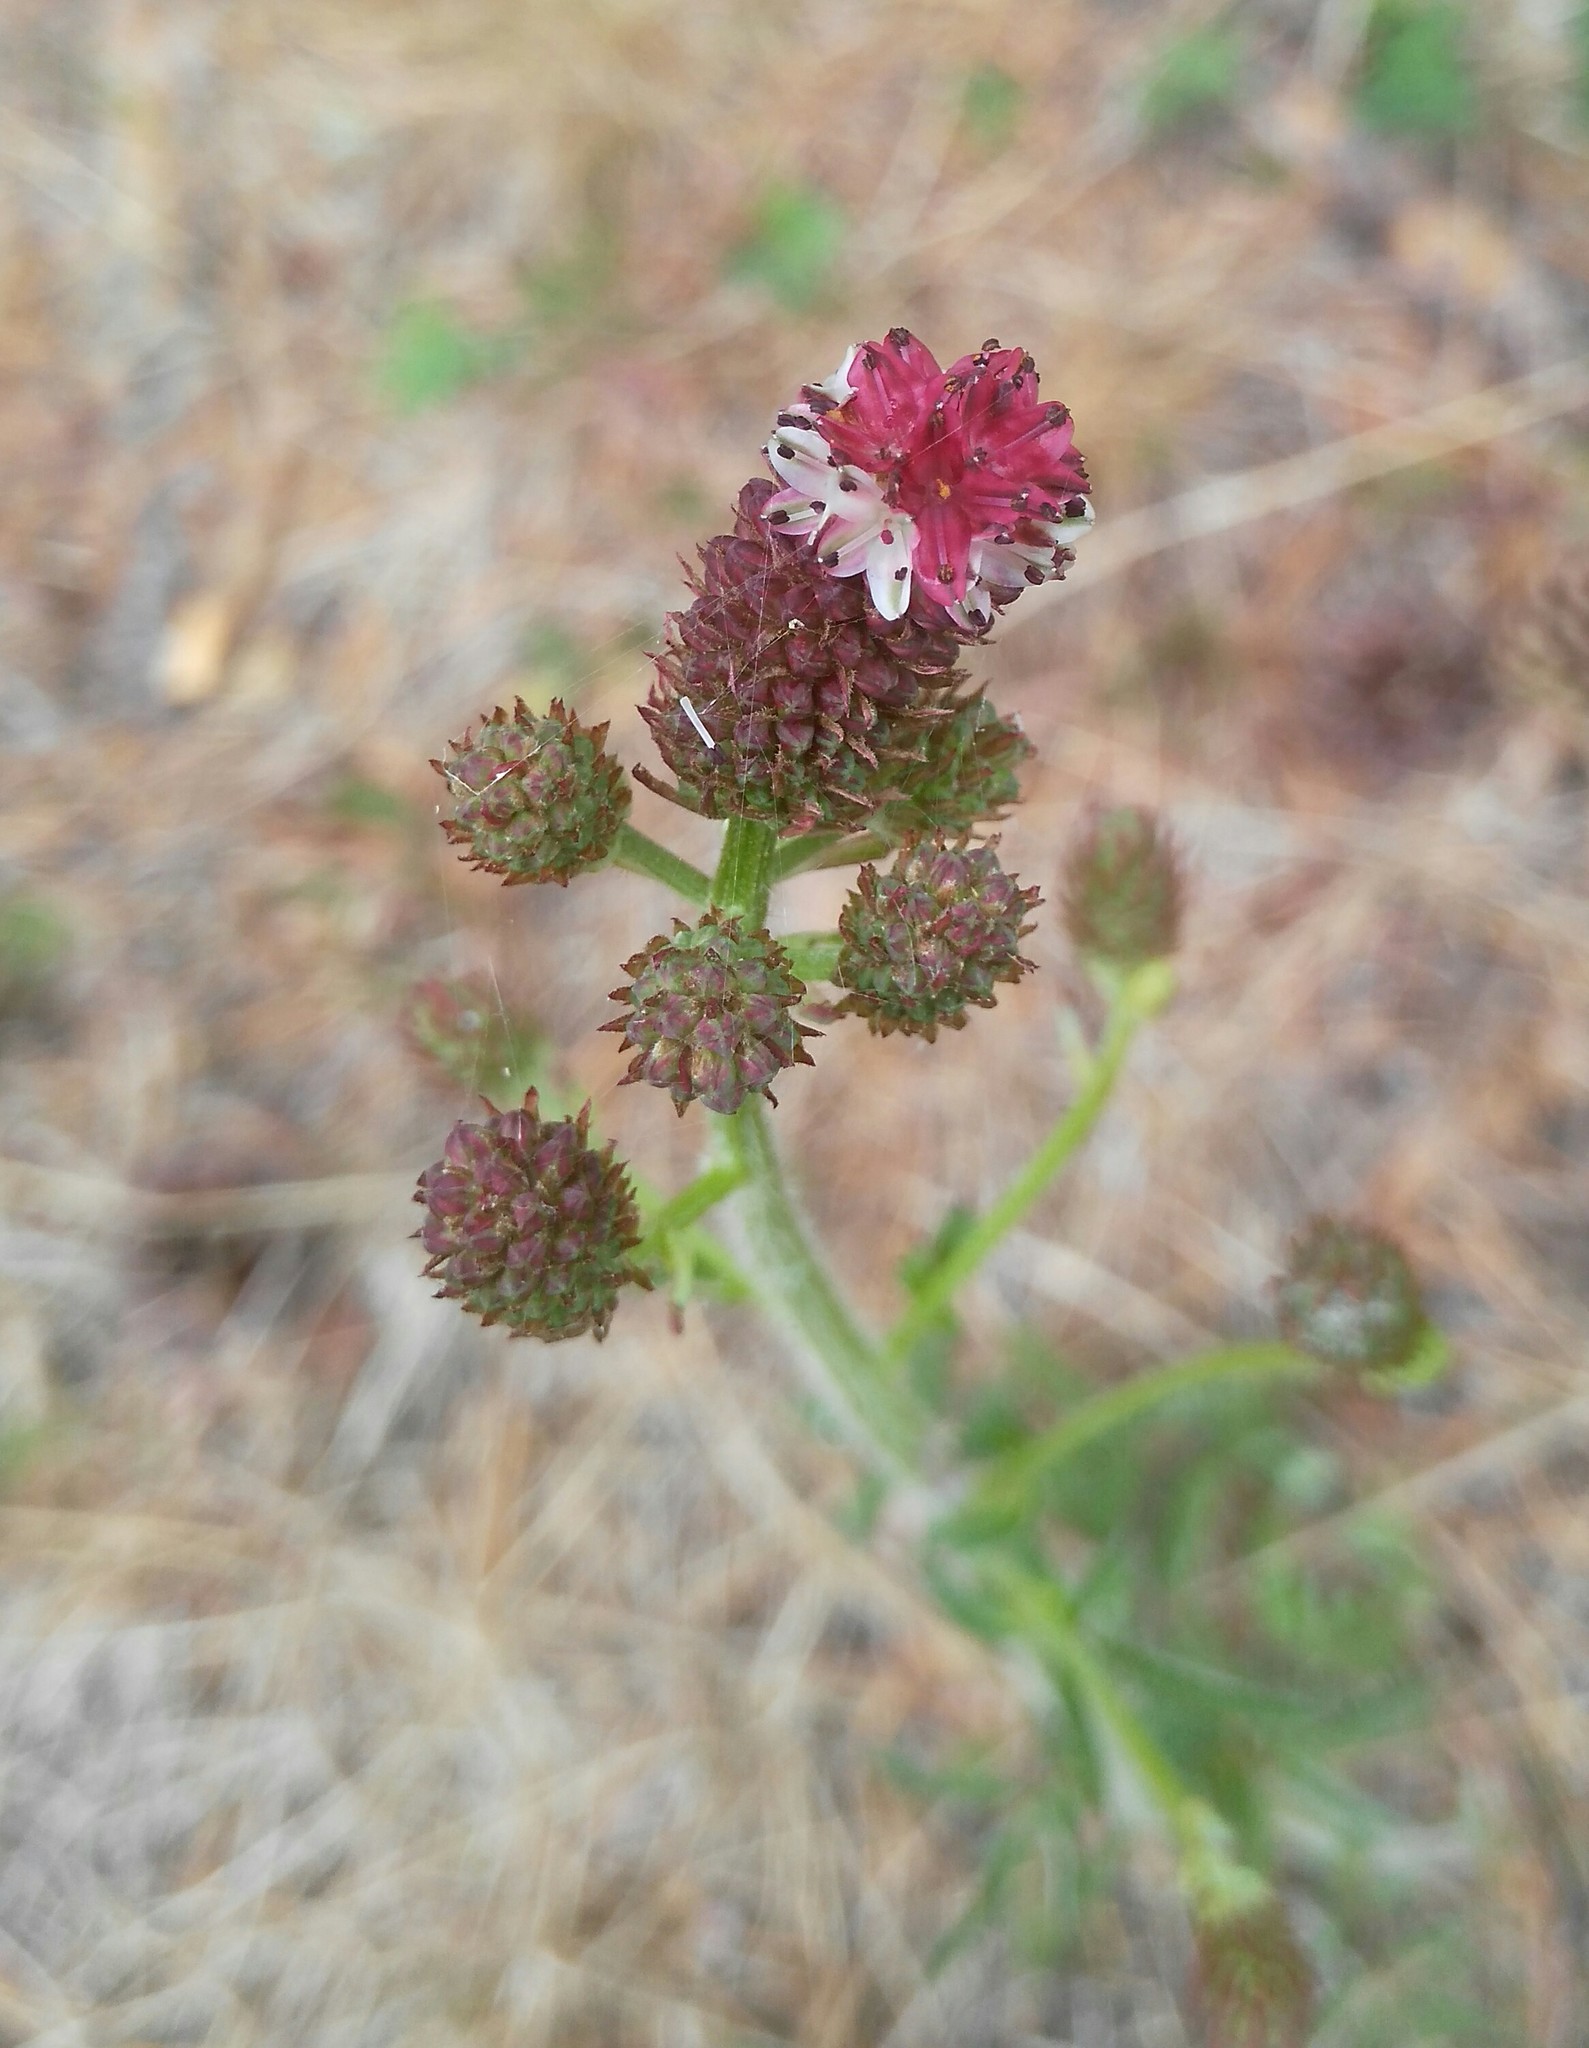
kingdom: Plantae
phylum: Tracheophyta
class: Magnoliopsida
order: Rosales
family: Rosaceae
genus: Sanguisorba
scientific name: Sanguisorba officinalis
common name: Great burnet
